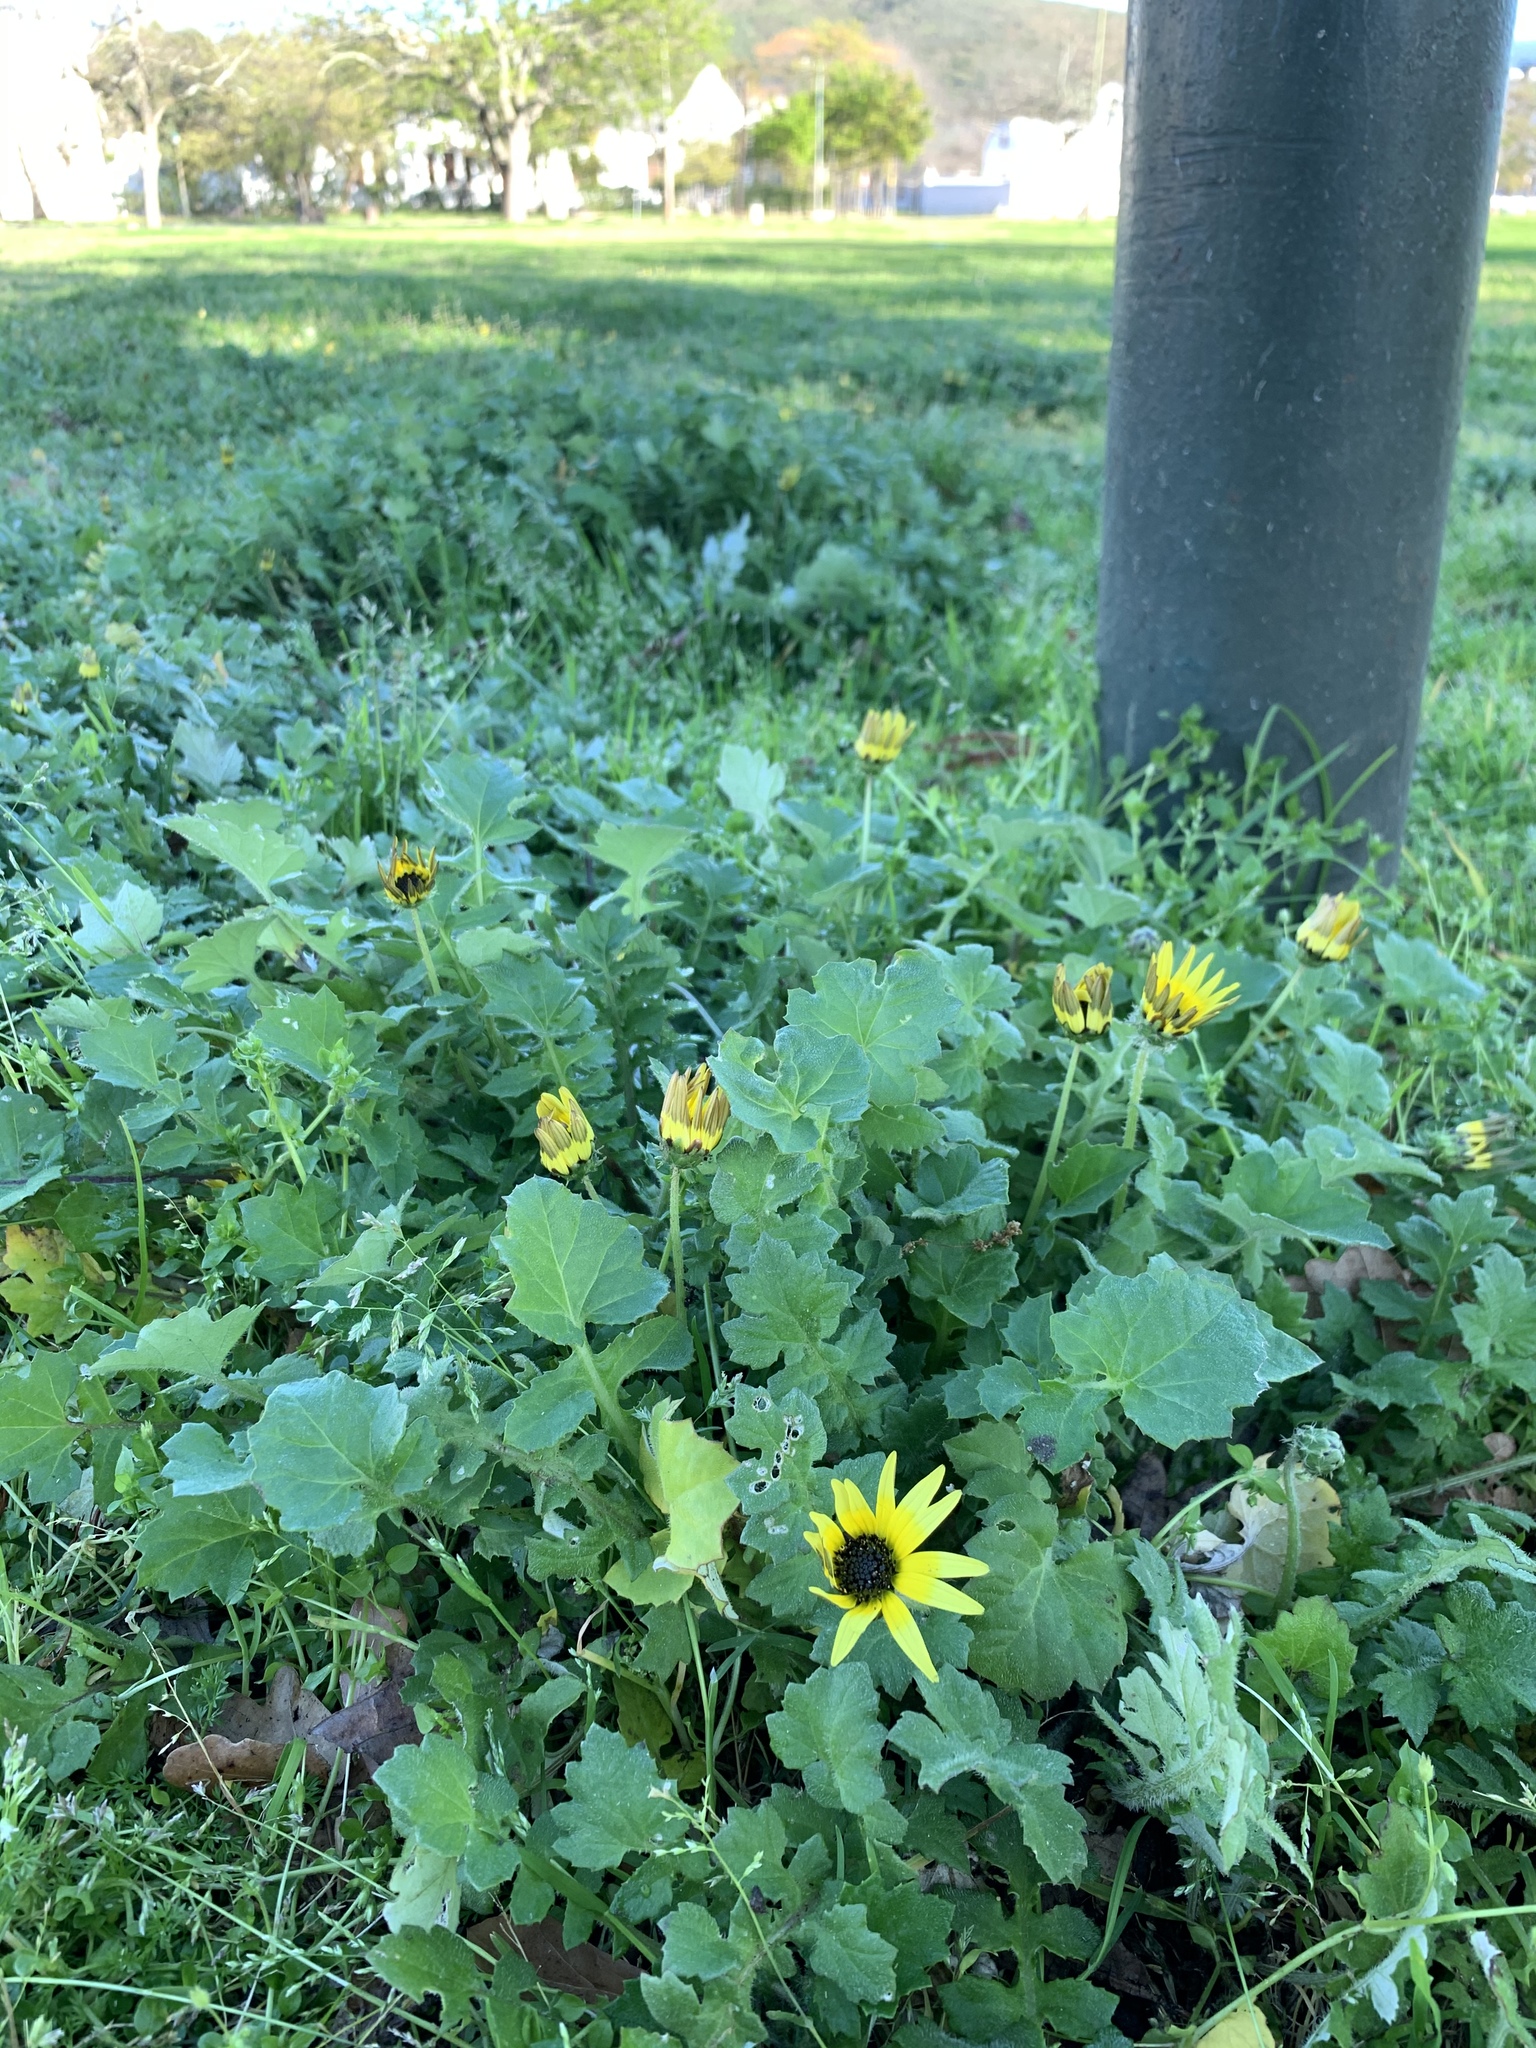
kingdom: Plantae
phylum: Tracheophyta
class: Magnoliopsida
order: Asterales
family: Asteraceae
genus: Arctotheca
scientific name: Arctotheca calendula
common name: Capeweed
